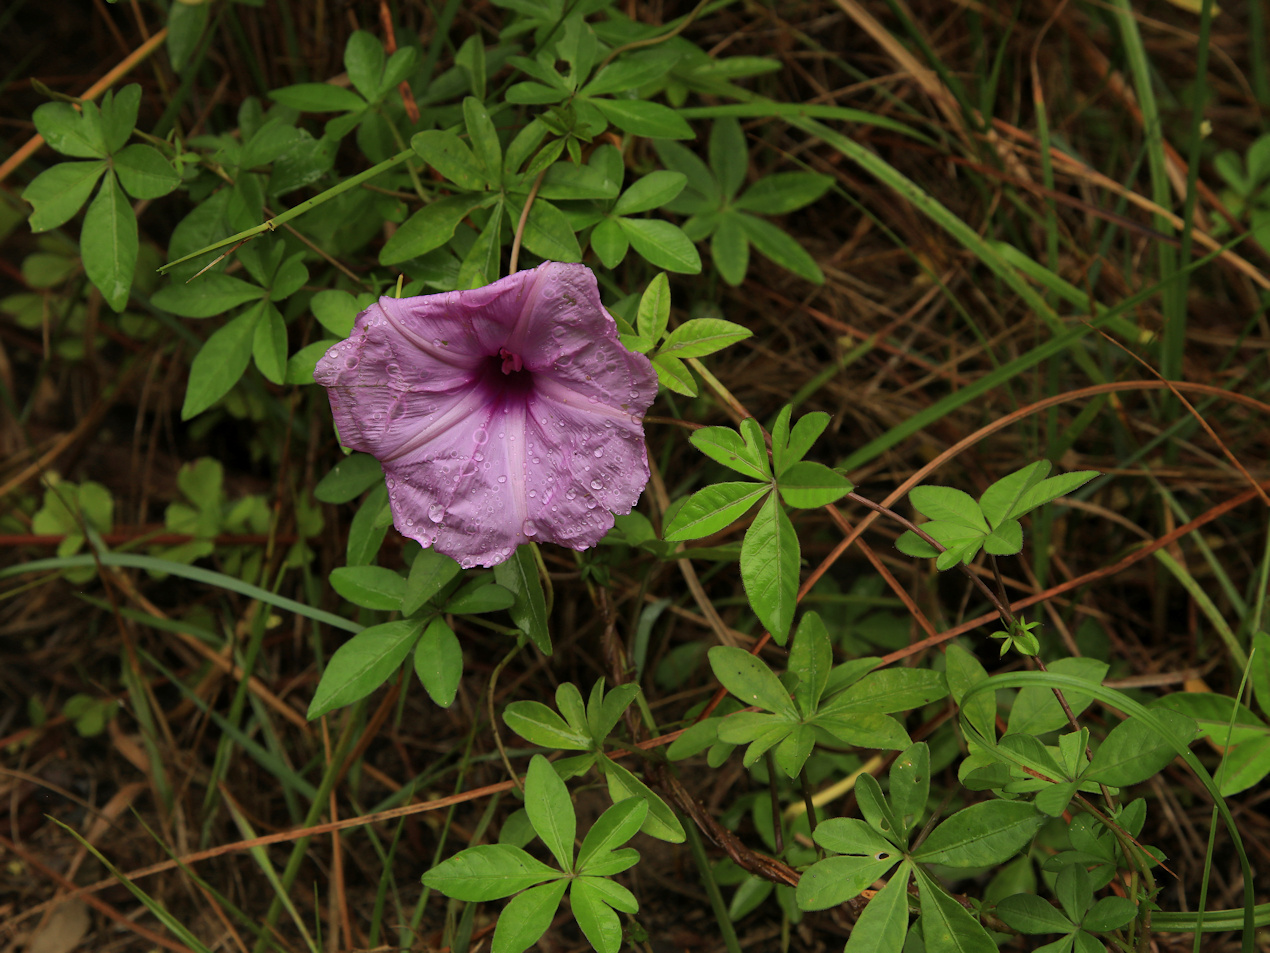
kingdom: Plantae
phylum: Tracheophyta
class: Magnoliopsida
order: Solanales
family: Convolvulaceae
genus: Ipomoea
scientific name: Ipomoea cairica
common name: Mile a minute vine
